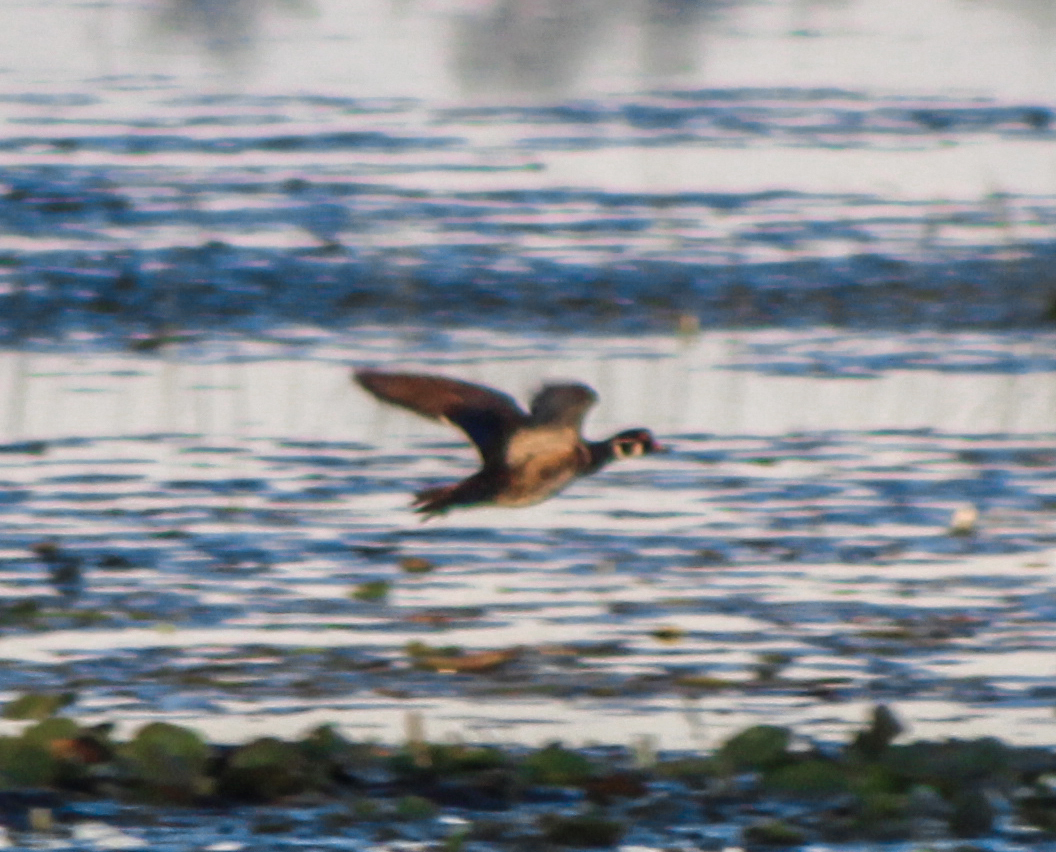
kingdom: Animalia
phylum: Chordata
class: Aves
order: Anseriformes
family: Anatidae
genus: Aix
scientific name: Aix sponsa
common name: Wood duck
